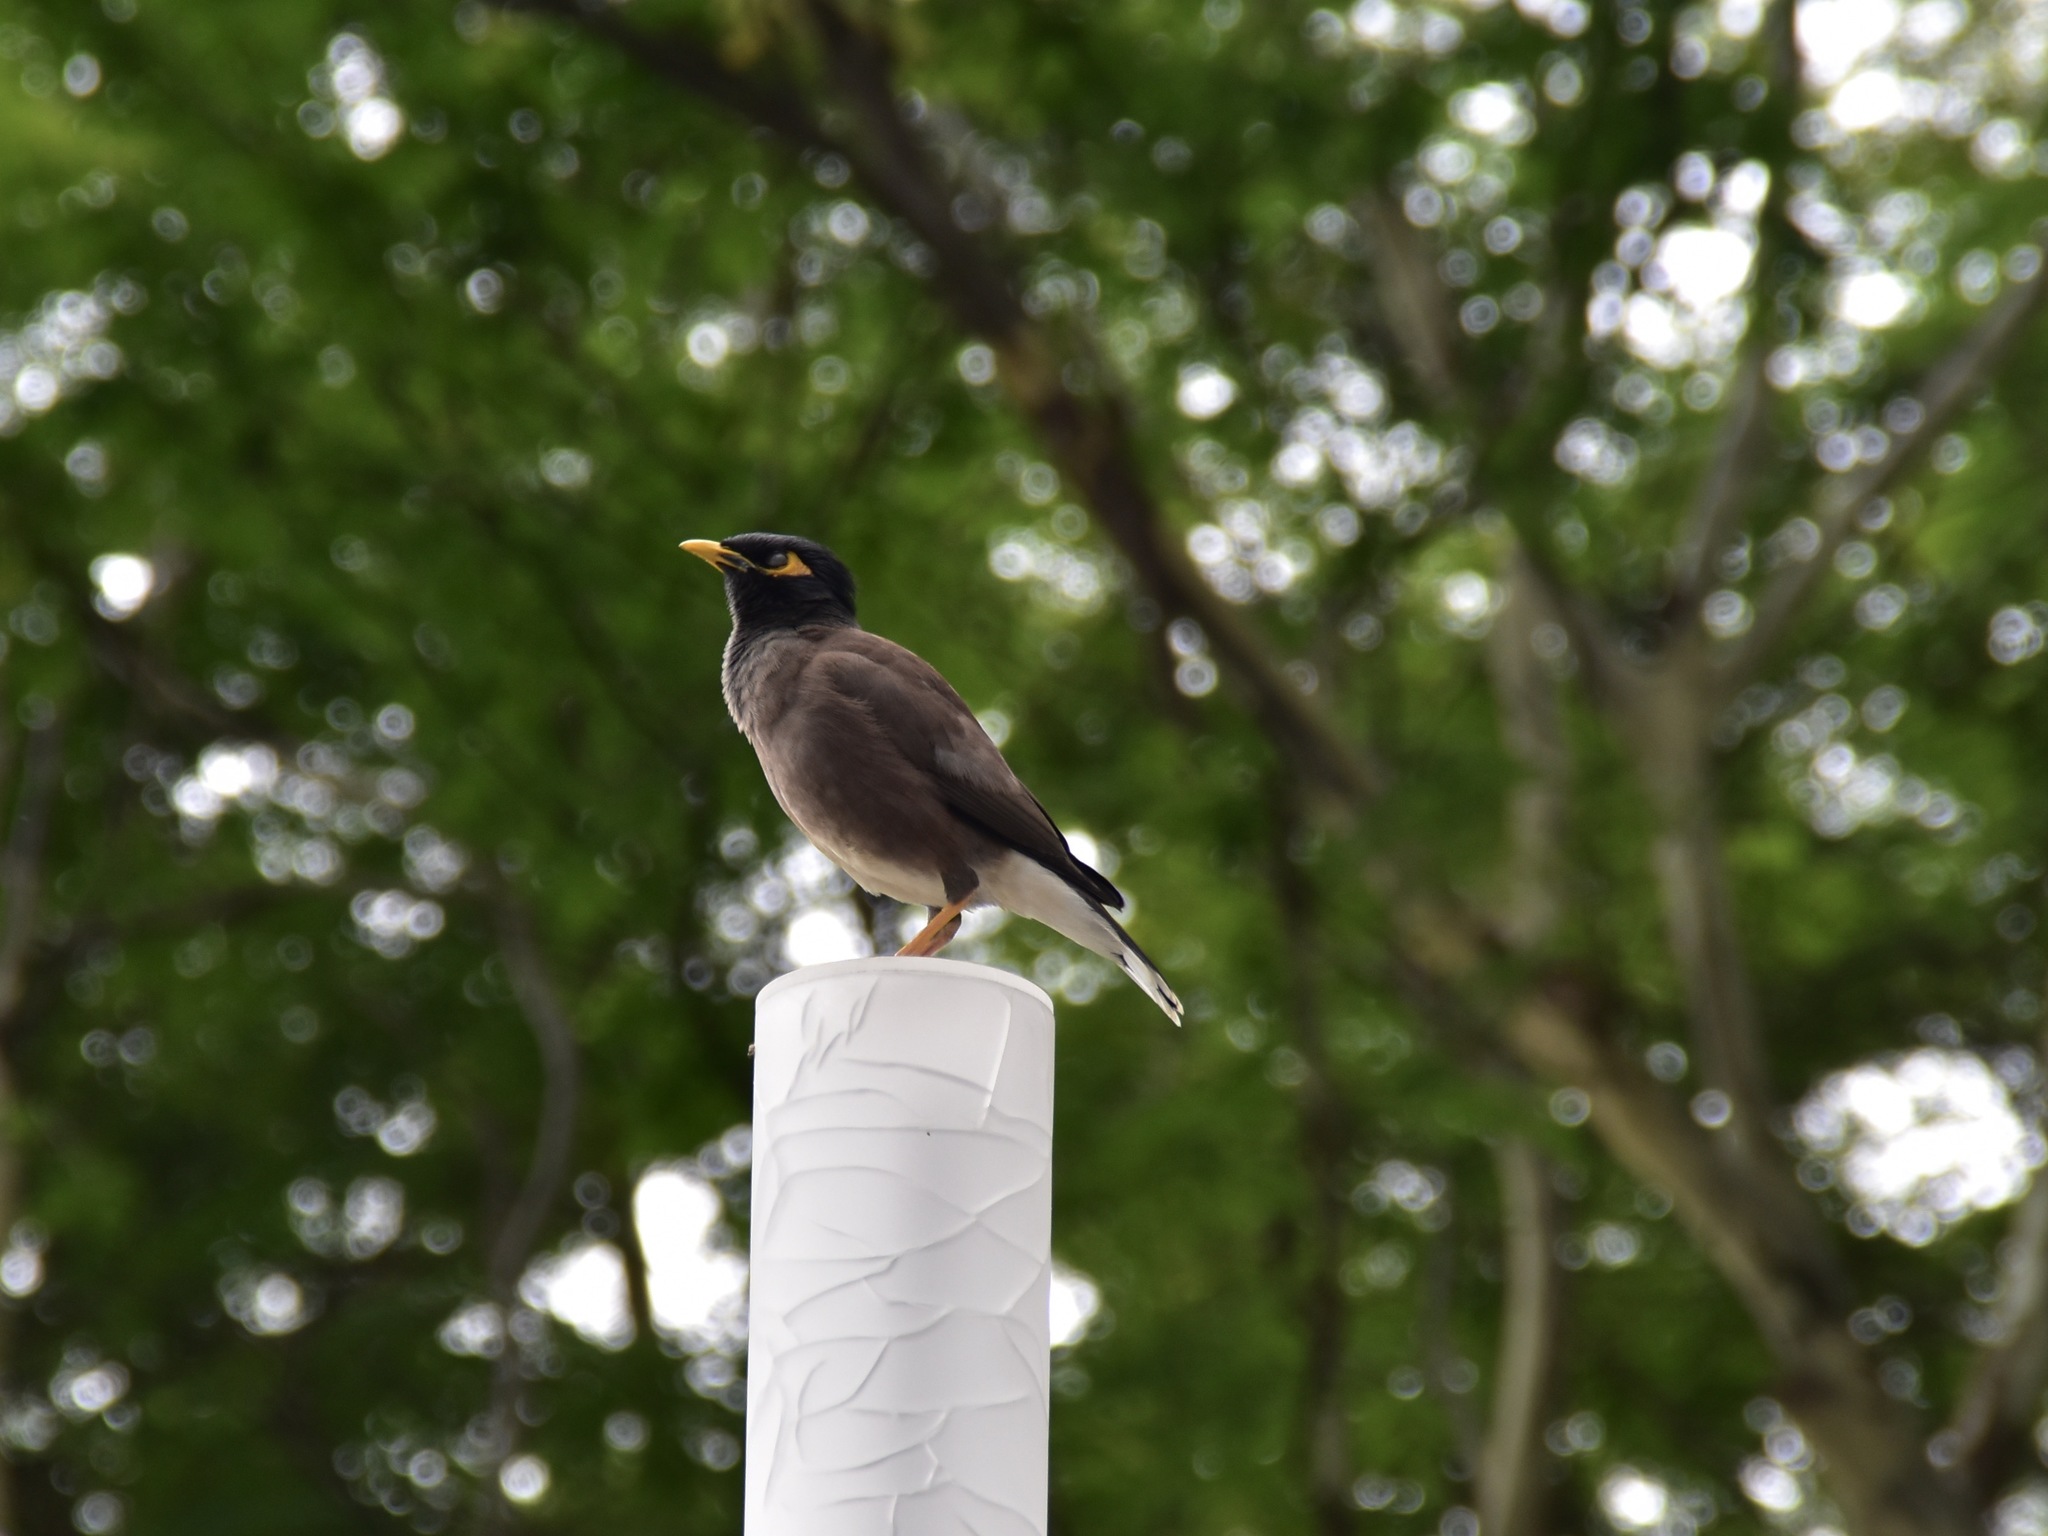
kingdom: Animalia
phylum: Chordata
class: Aves
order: Passeriformes
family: Sturnidae
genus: Acridotheres
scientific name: Acridotheres tristis
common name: Common myna
